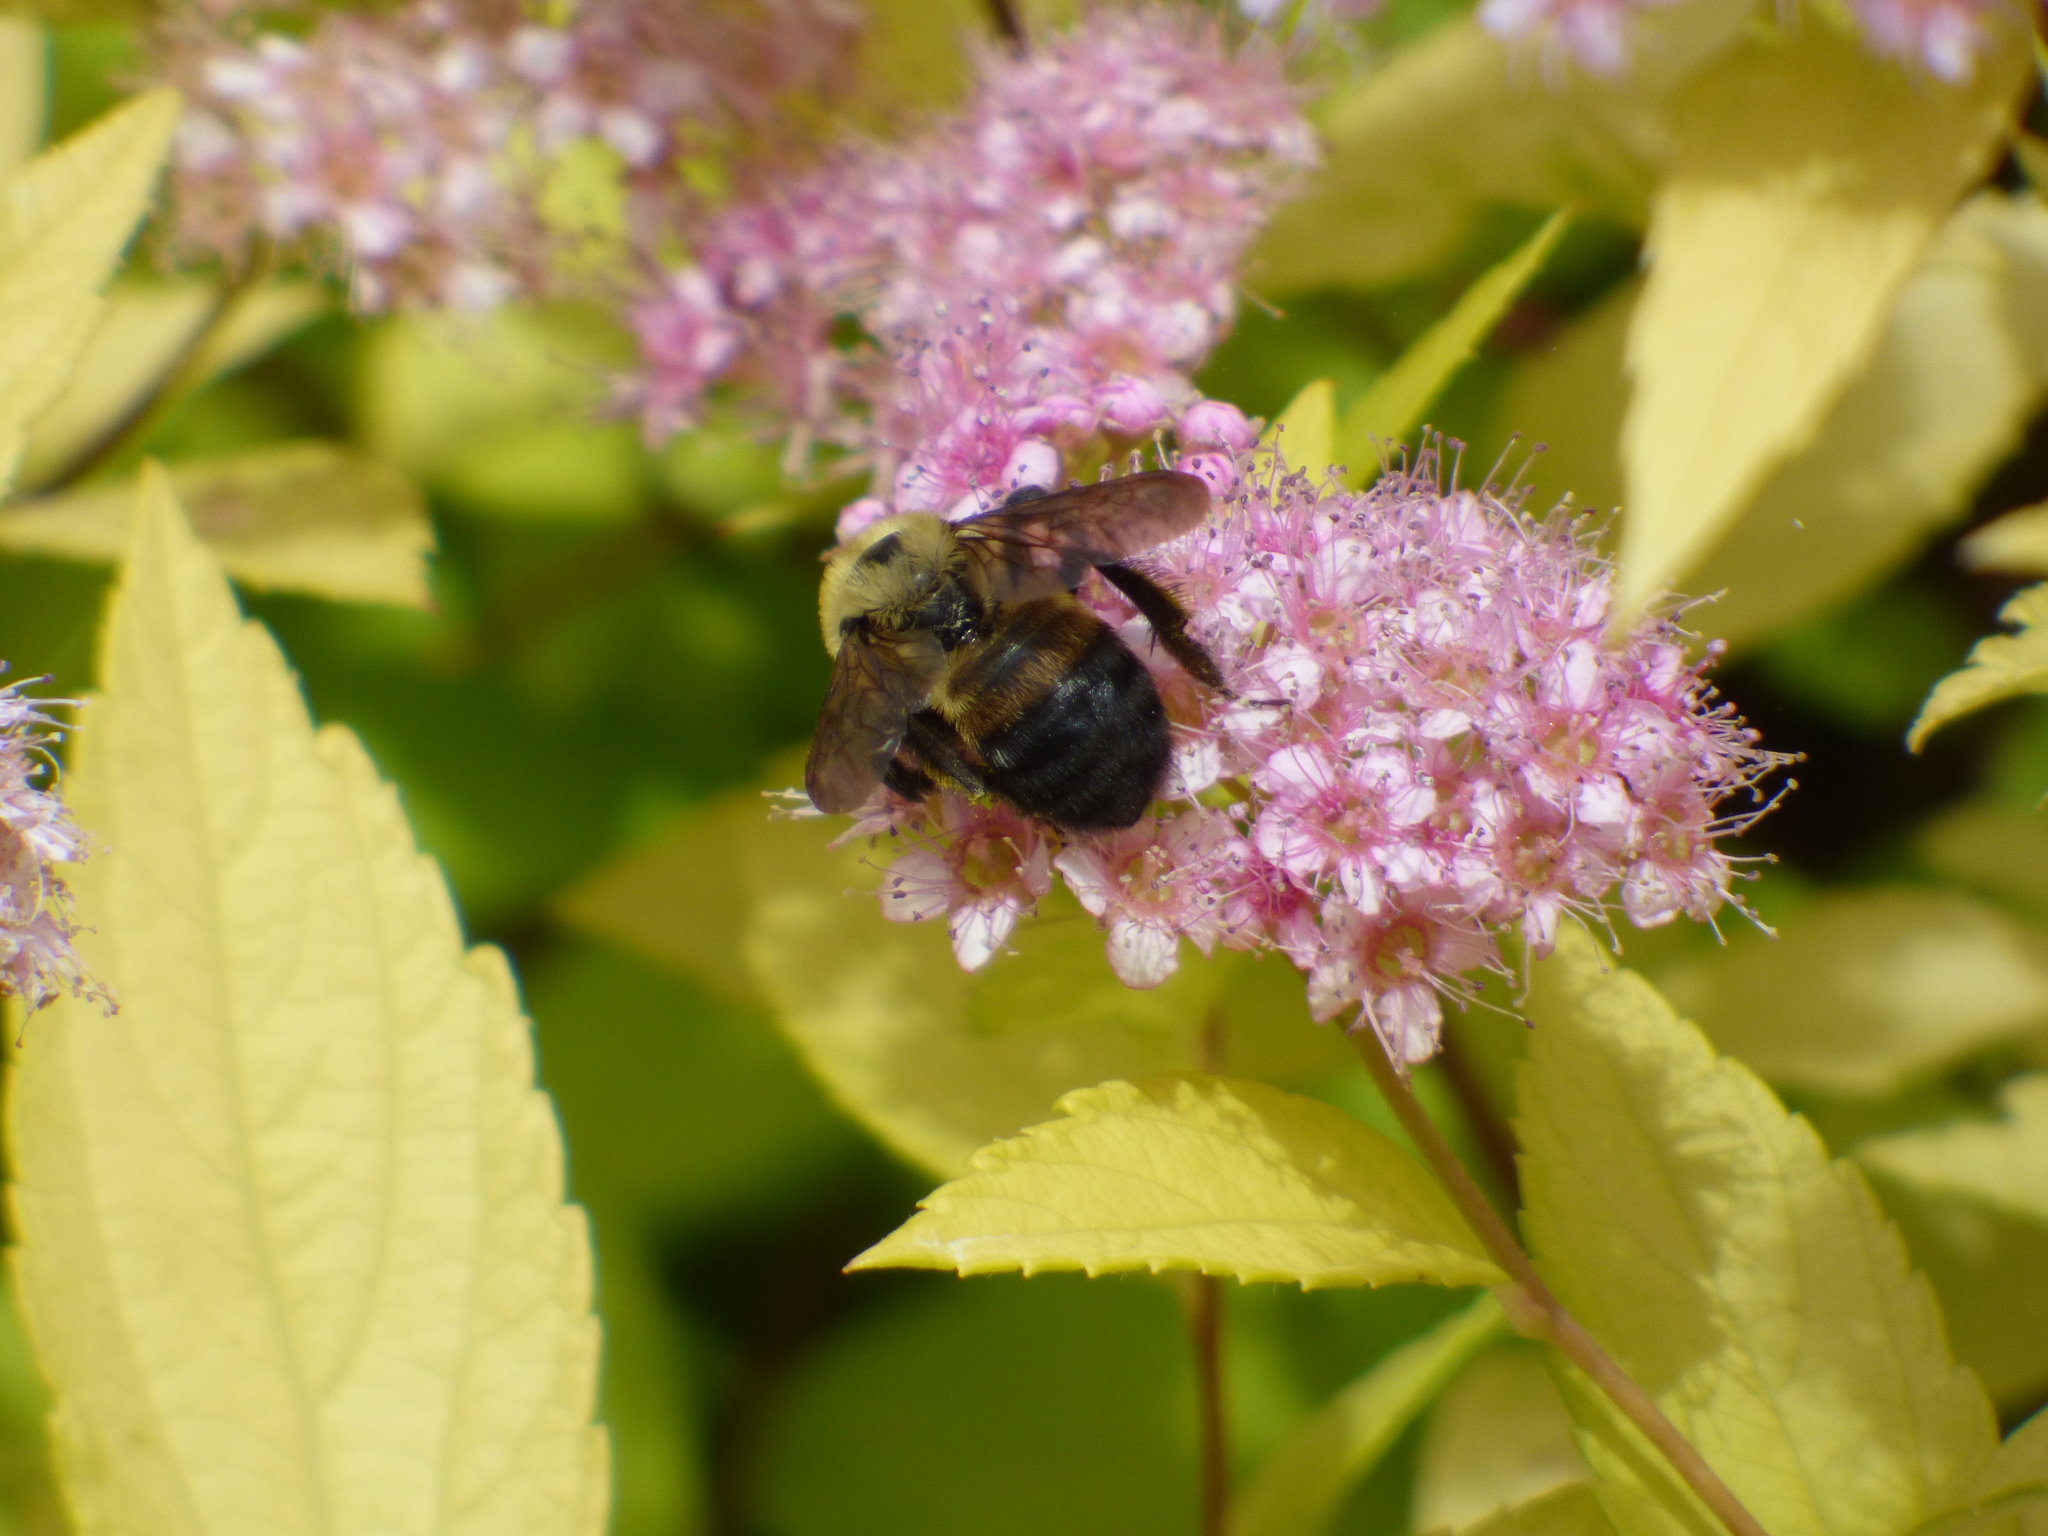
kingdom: Animalia
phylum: Arthropoda
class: Insecta
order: Hymenoptera
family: Apidae
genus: Bombus
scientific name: Bombus griseocollis
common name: Brown-belted bumble bee
